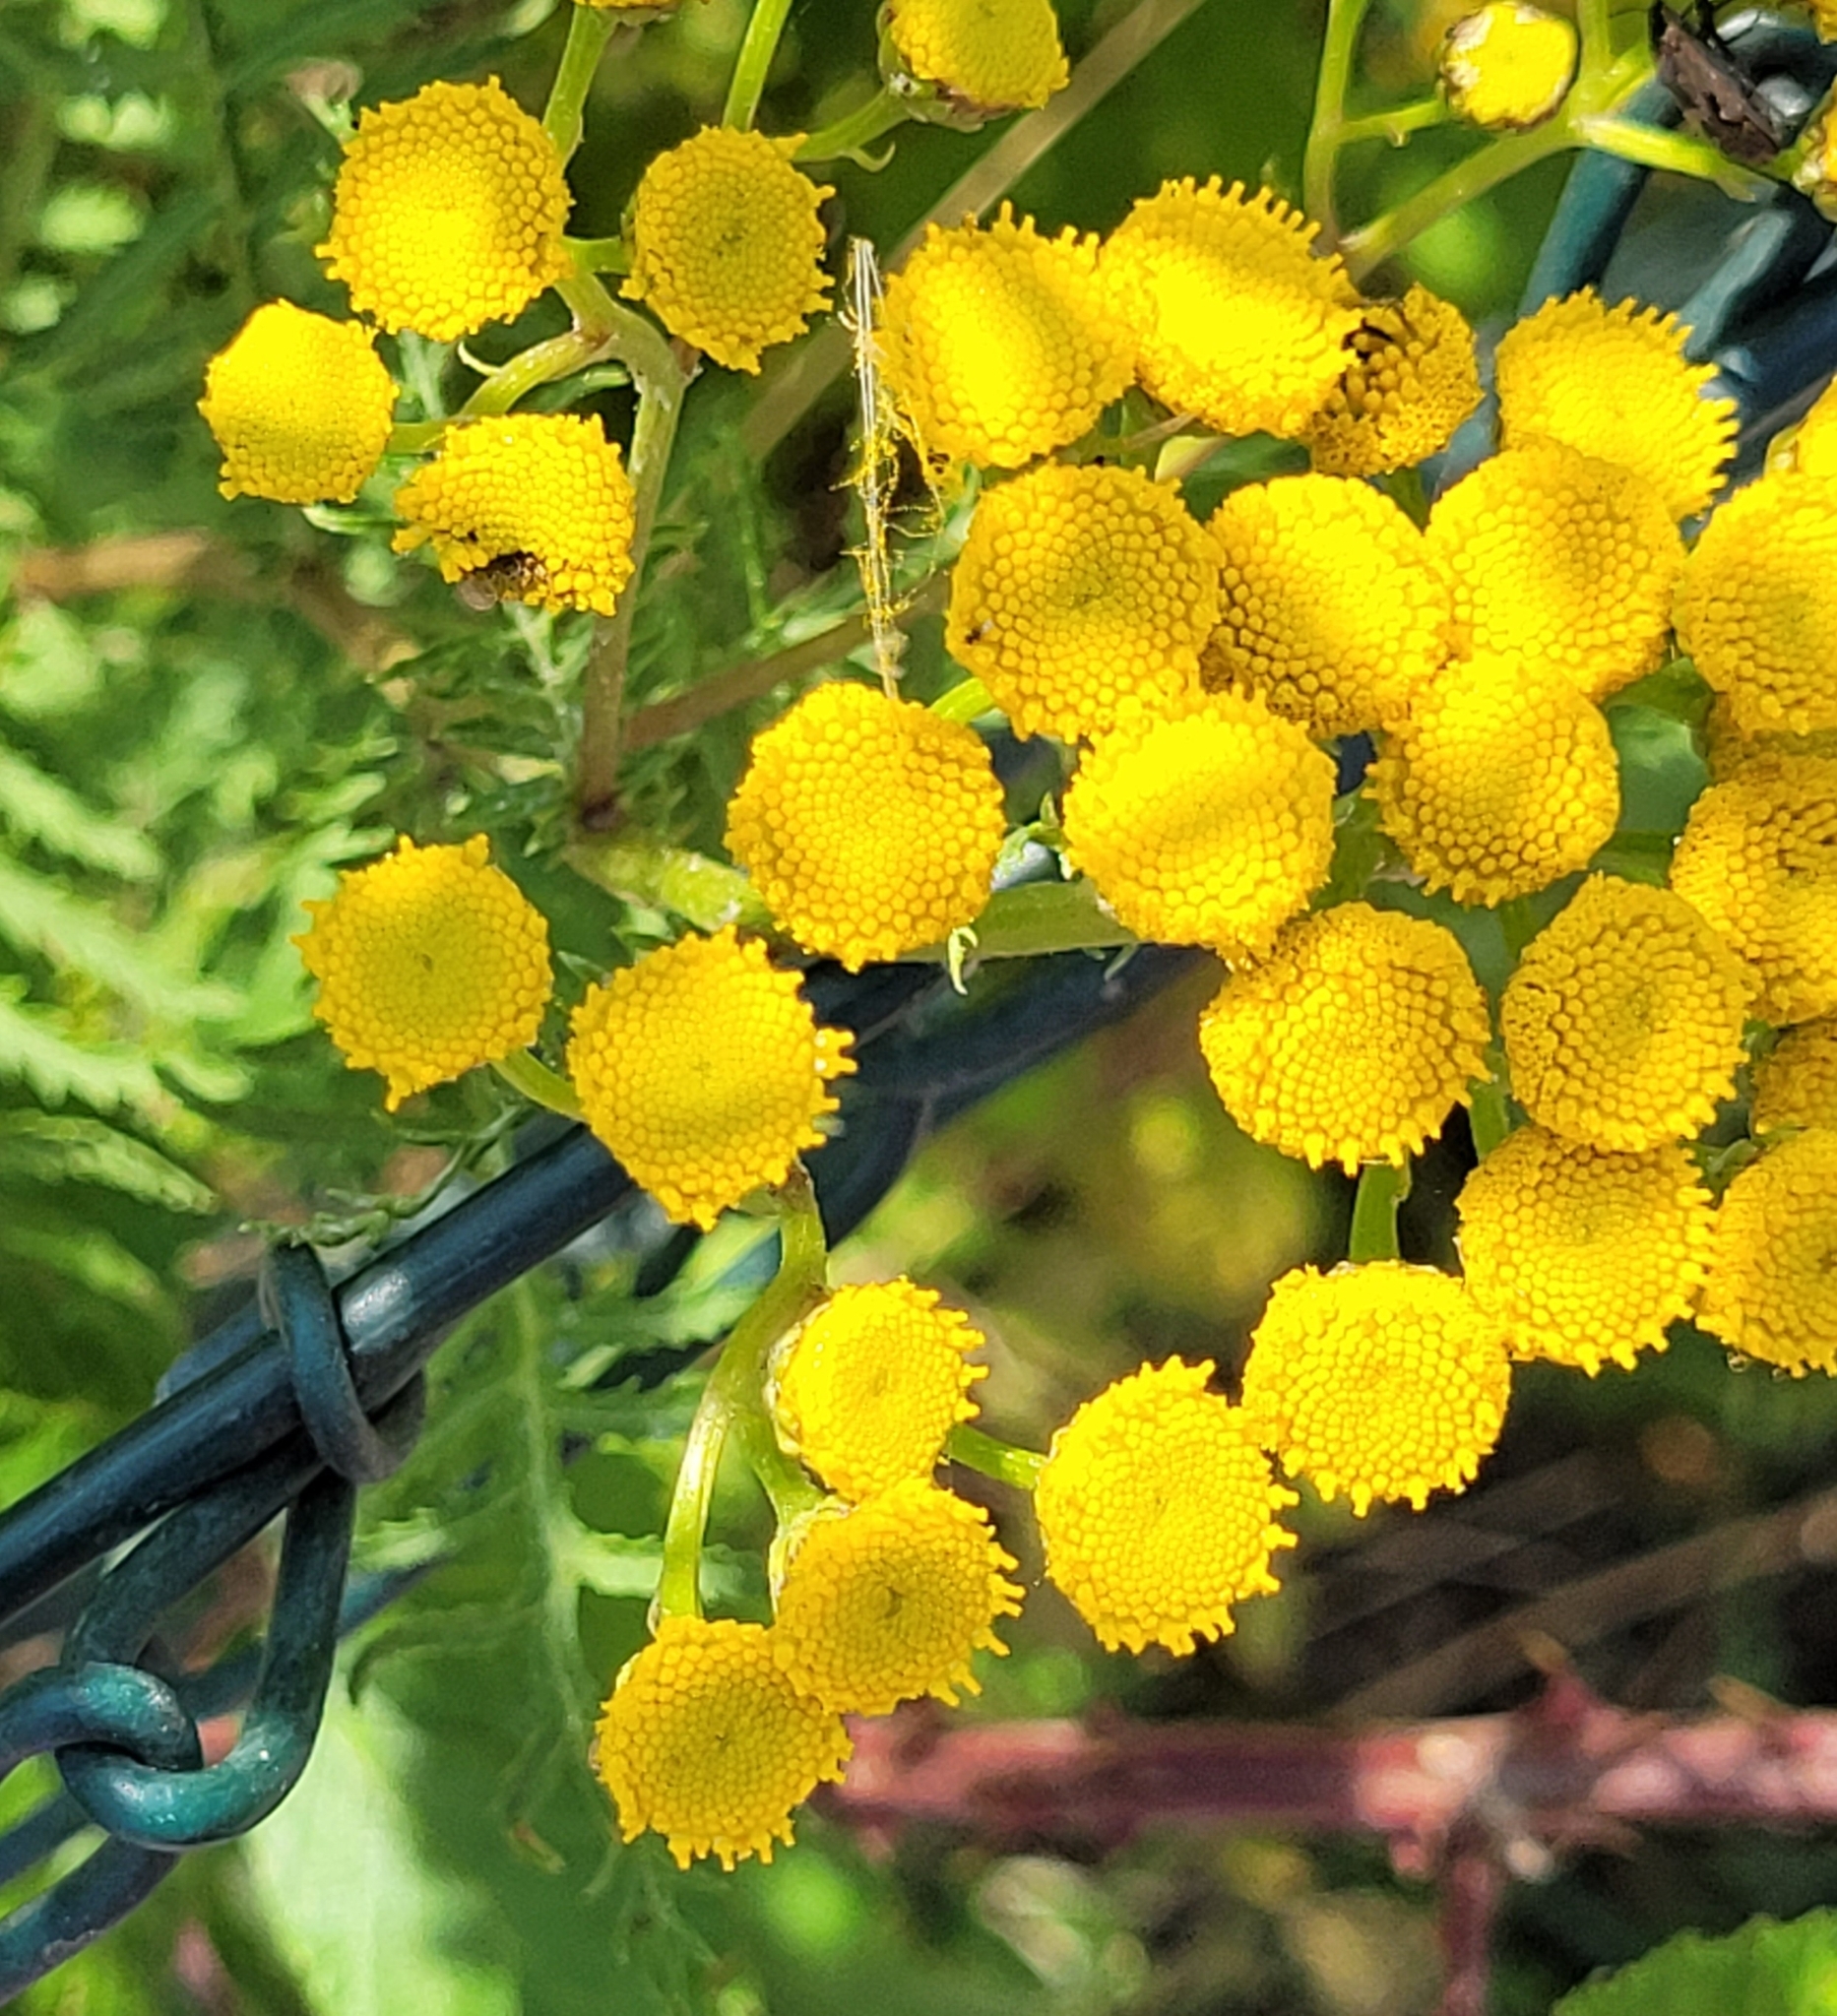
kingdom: Plantae
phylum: Tracheophyta
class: Magnoliopsida
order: Asterales
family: Asteraceae
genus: Tanacetum
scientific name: Tanacetum vulgare
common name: Common tansy
